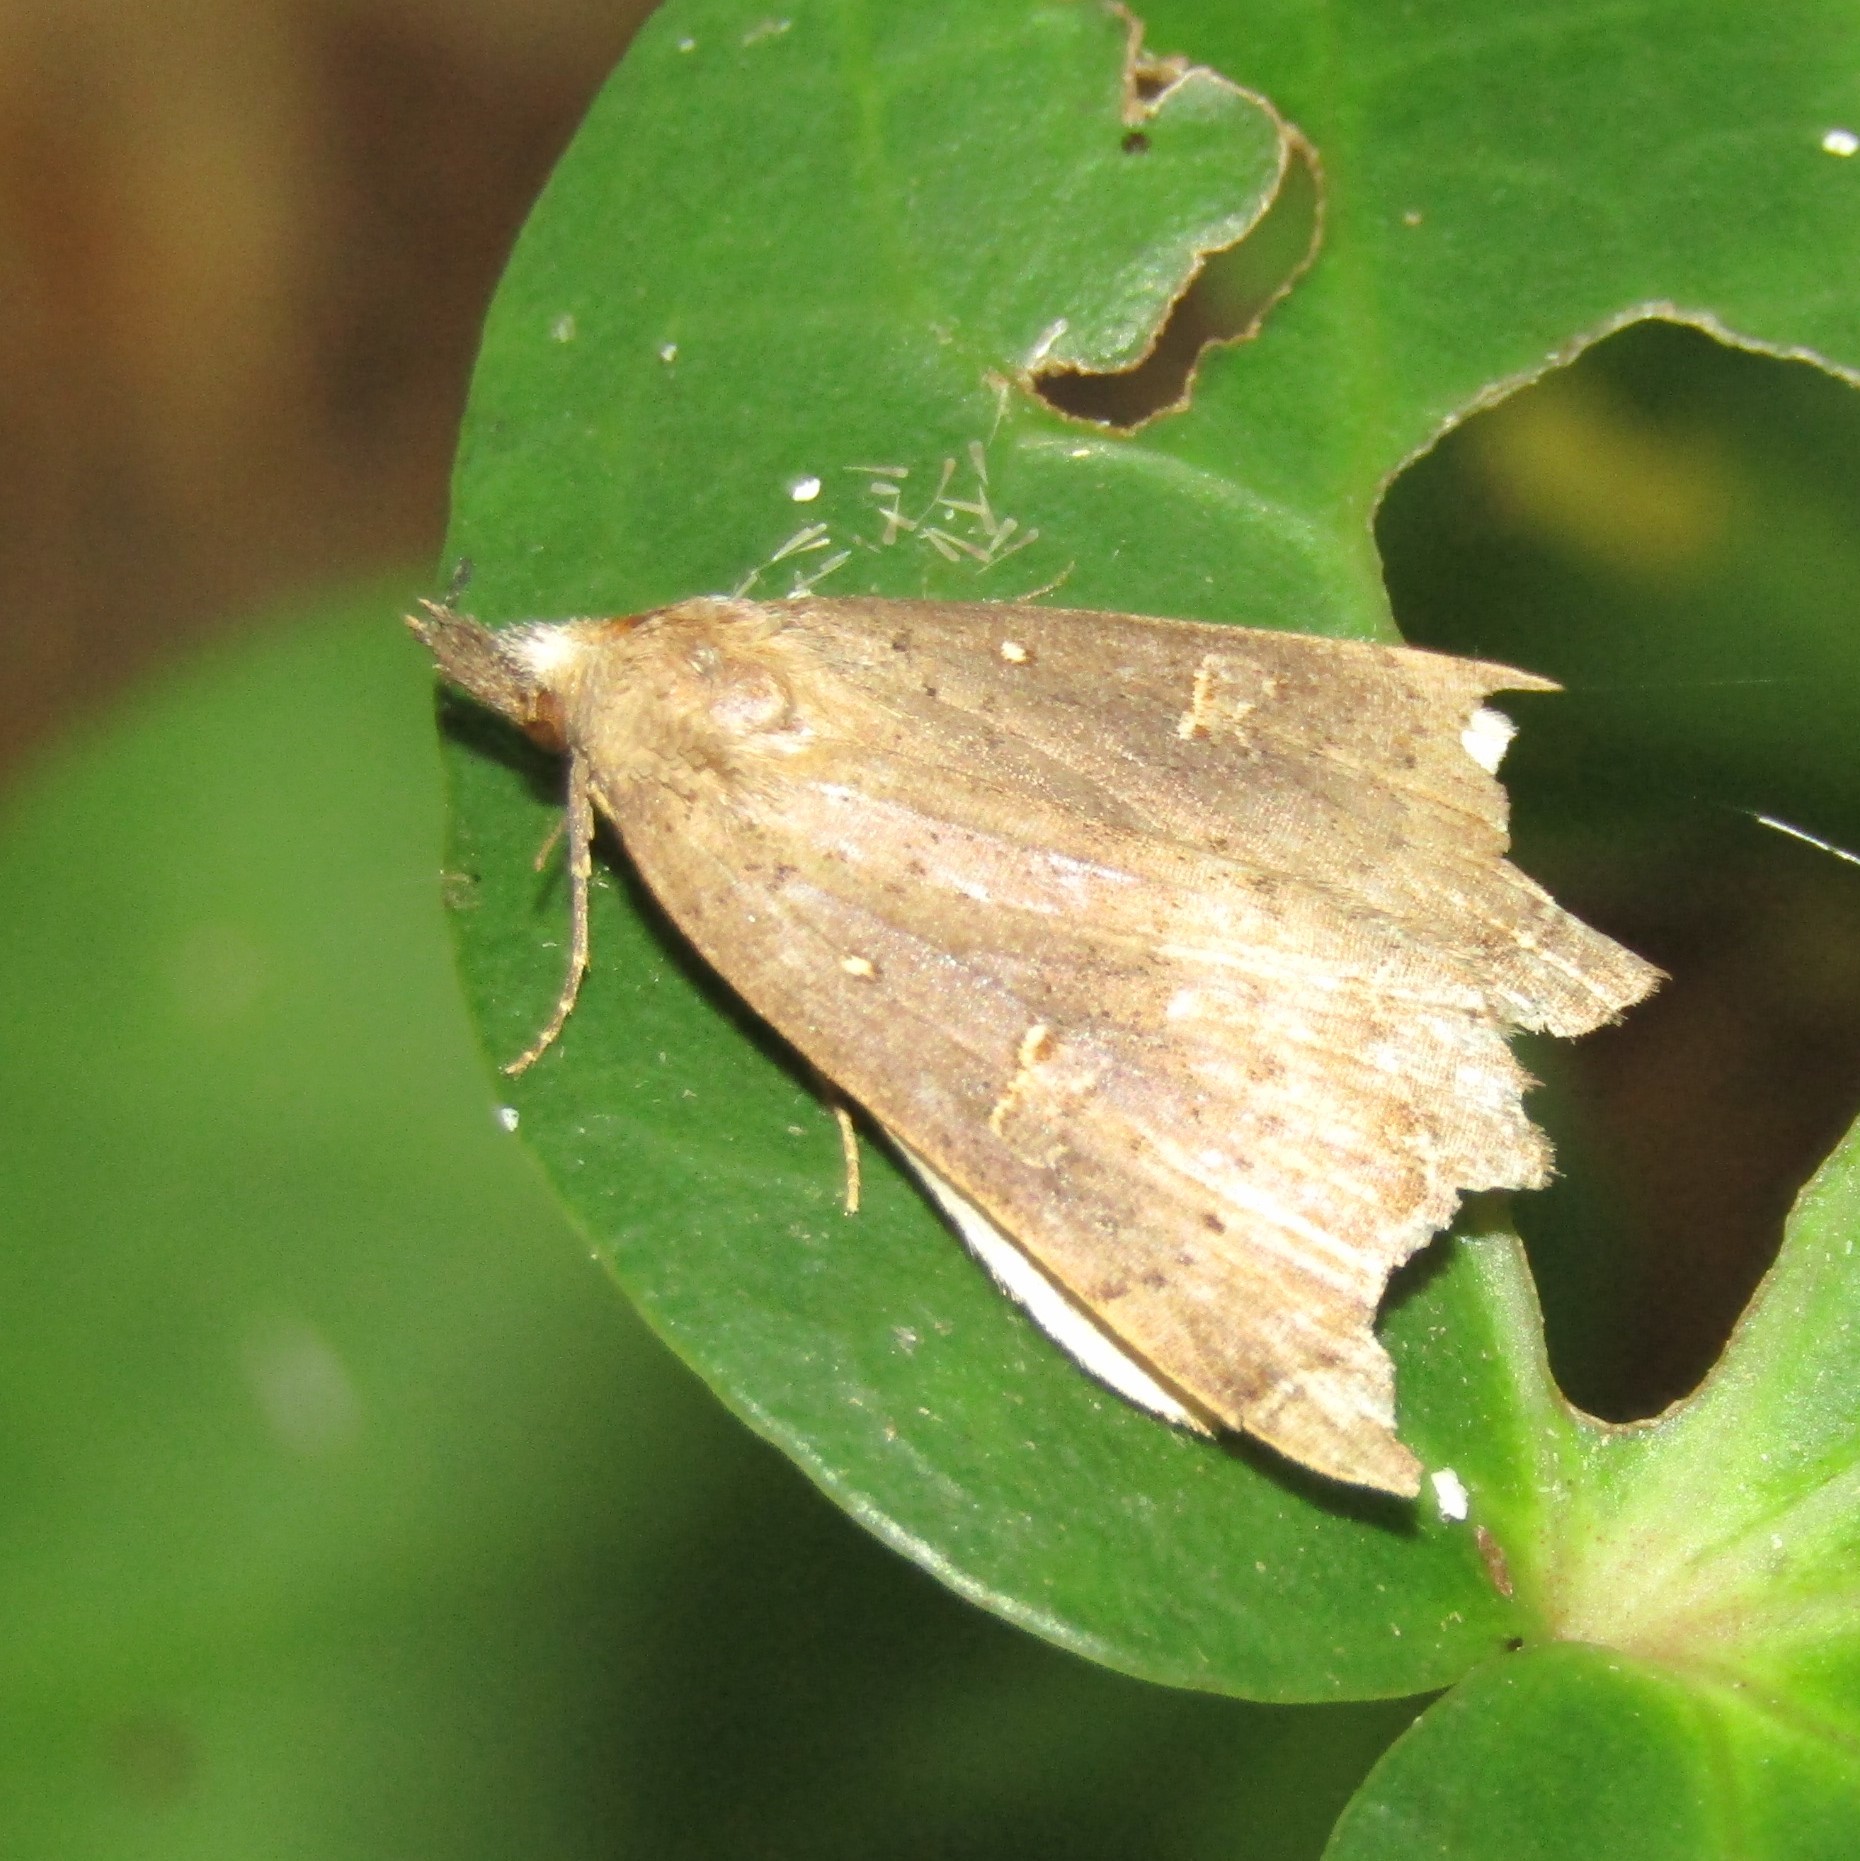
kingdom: Animalia
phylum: Arthropoda
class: Insecta
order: Lepidoptera
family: Erebidae
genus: Rhapsa
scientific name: Rhapsa scotosialis
